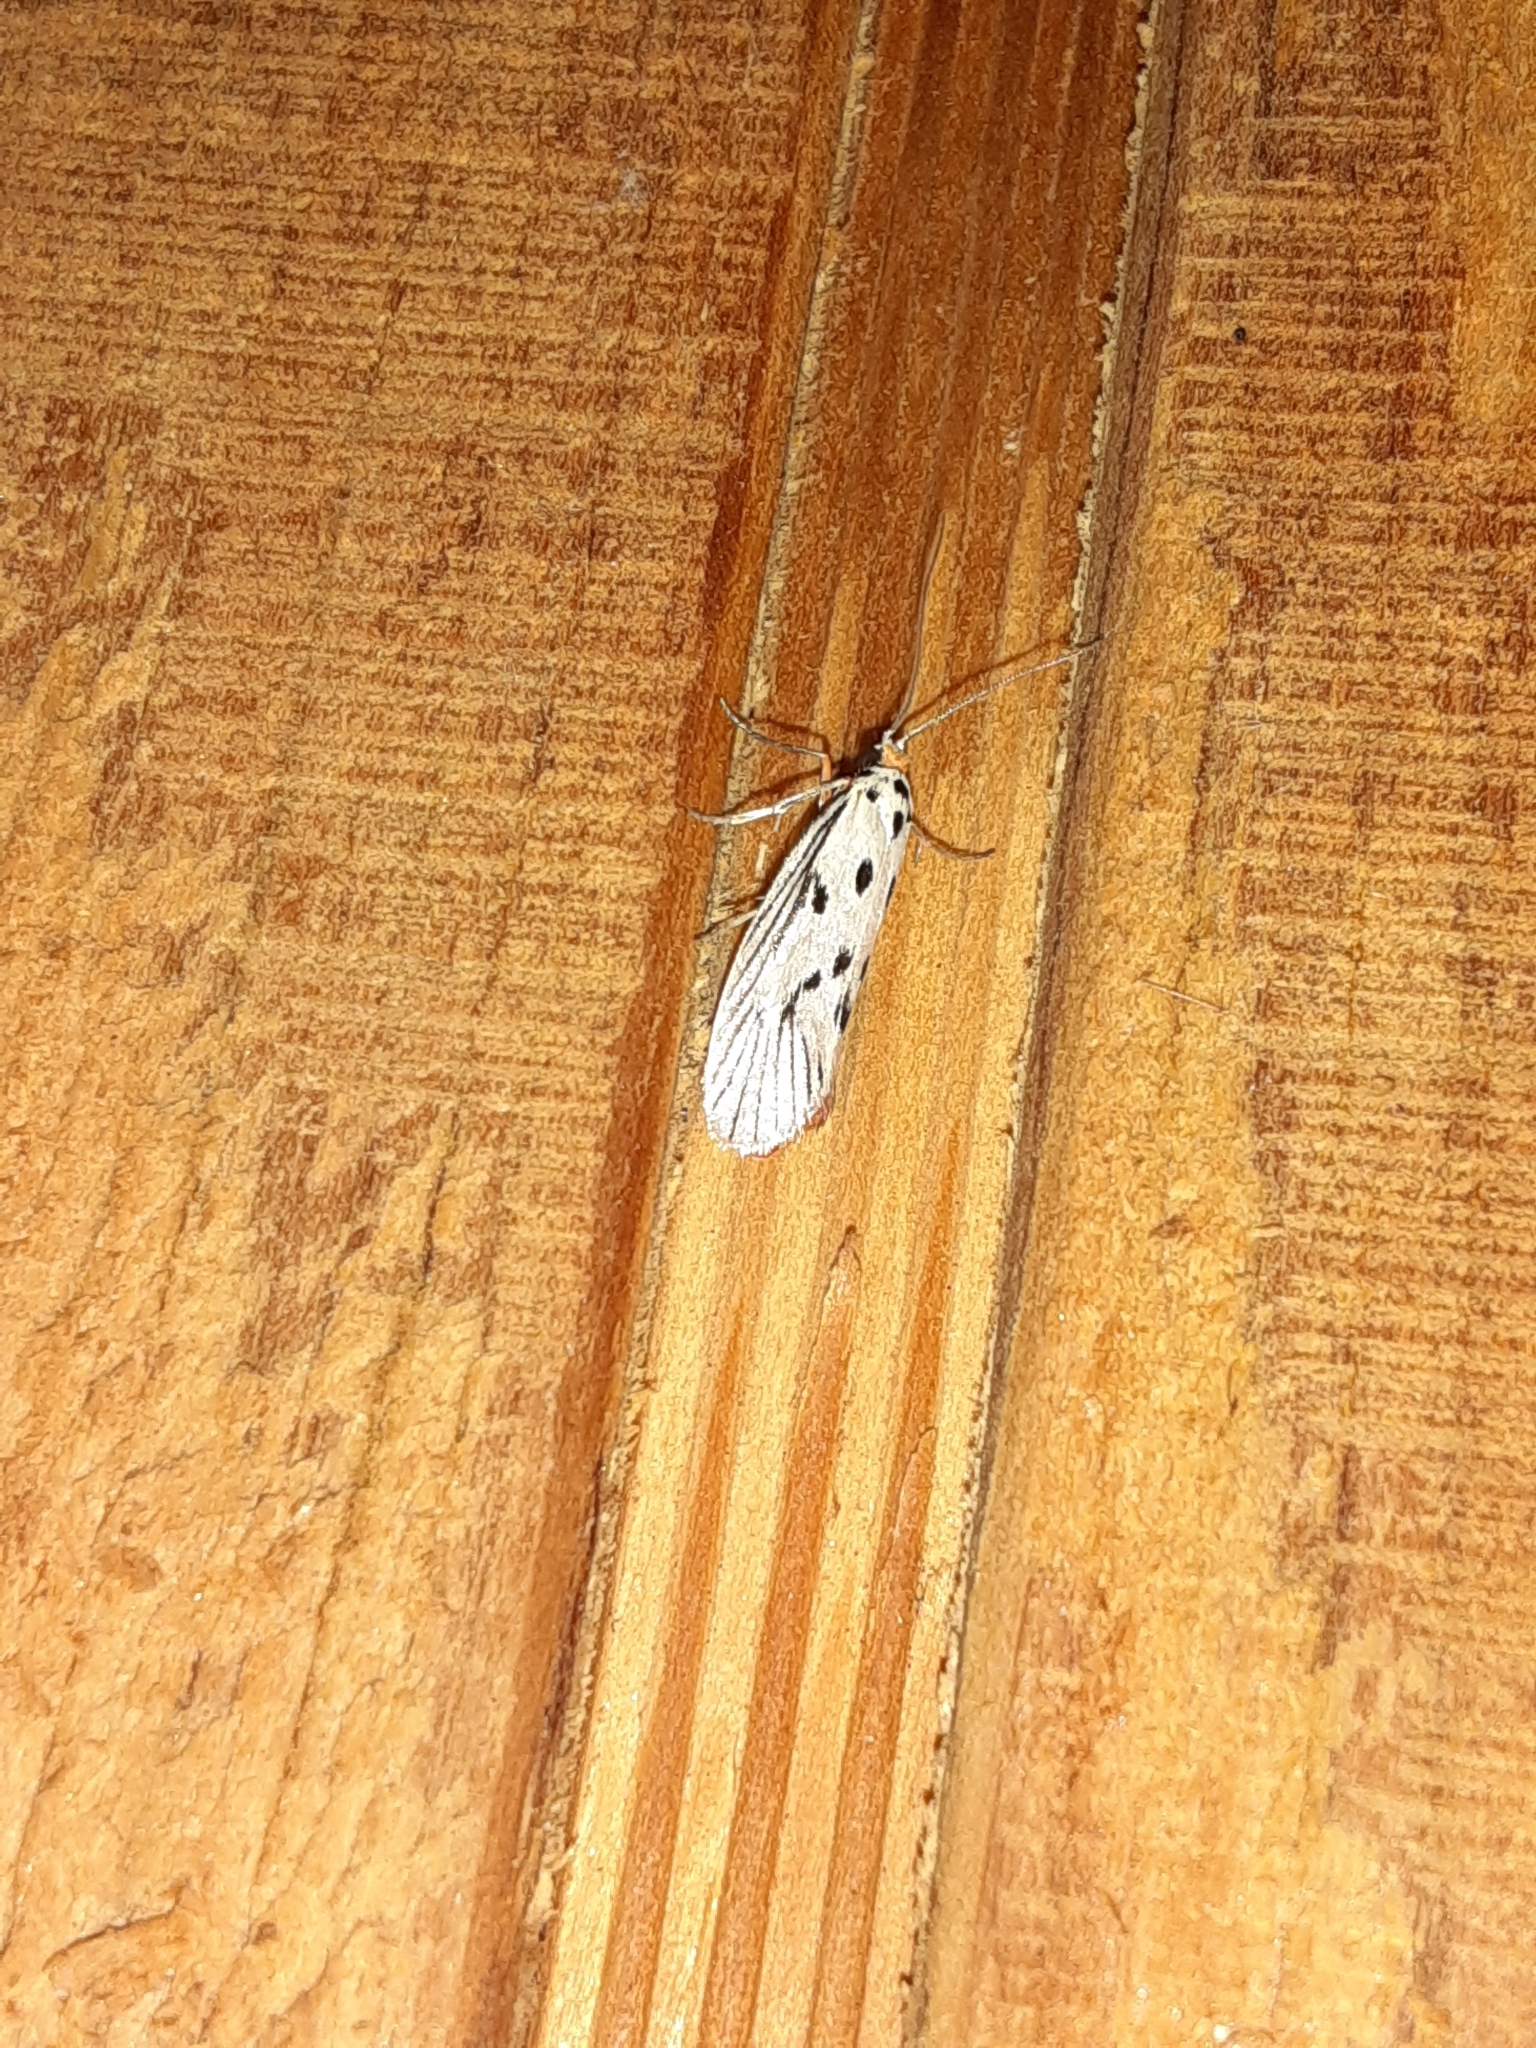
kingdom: Animalia
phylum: Arthropoda
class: Insecta
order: Lepidoptera
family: Lacturidae
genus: Lactura
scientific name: Lactura
